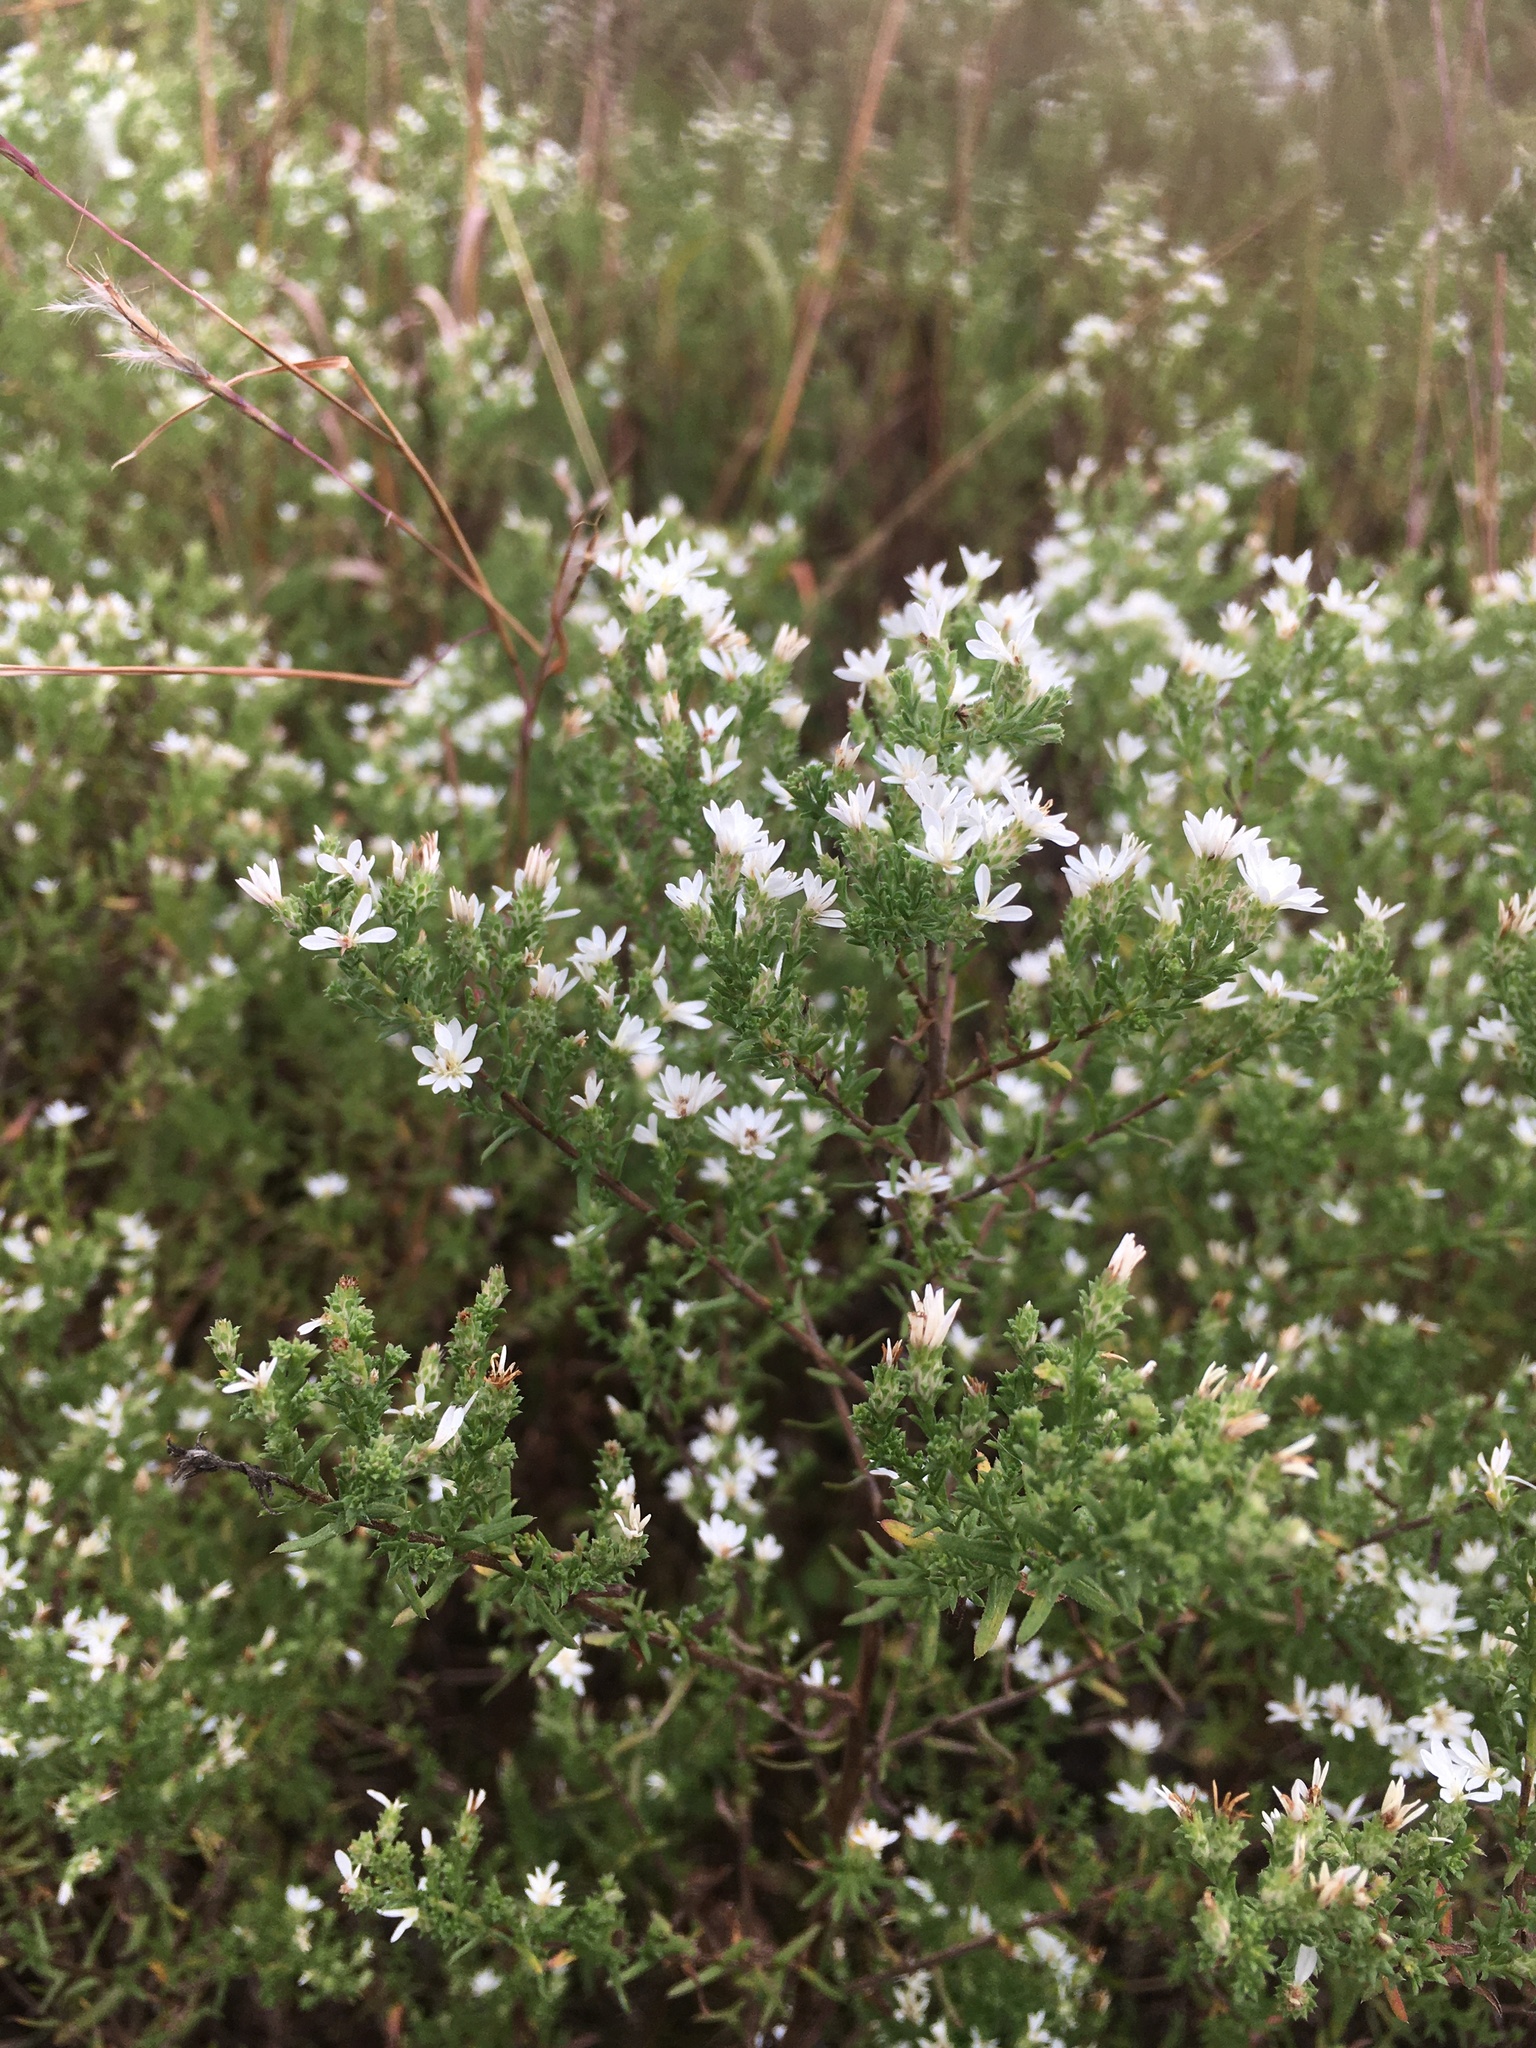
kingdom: Plantae
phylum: Tracheophyta
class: Magnoliopsida
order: Asterales
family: Asteraceae
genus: Symphyotrichum
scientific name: Symphyotrichum ericoides
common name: Heath aster
